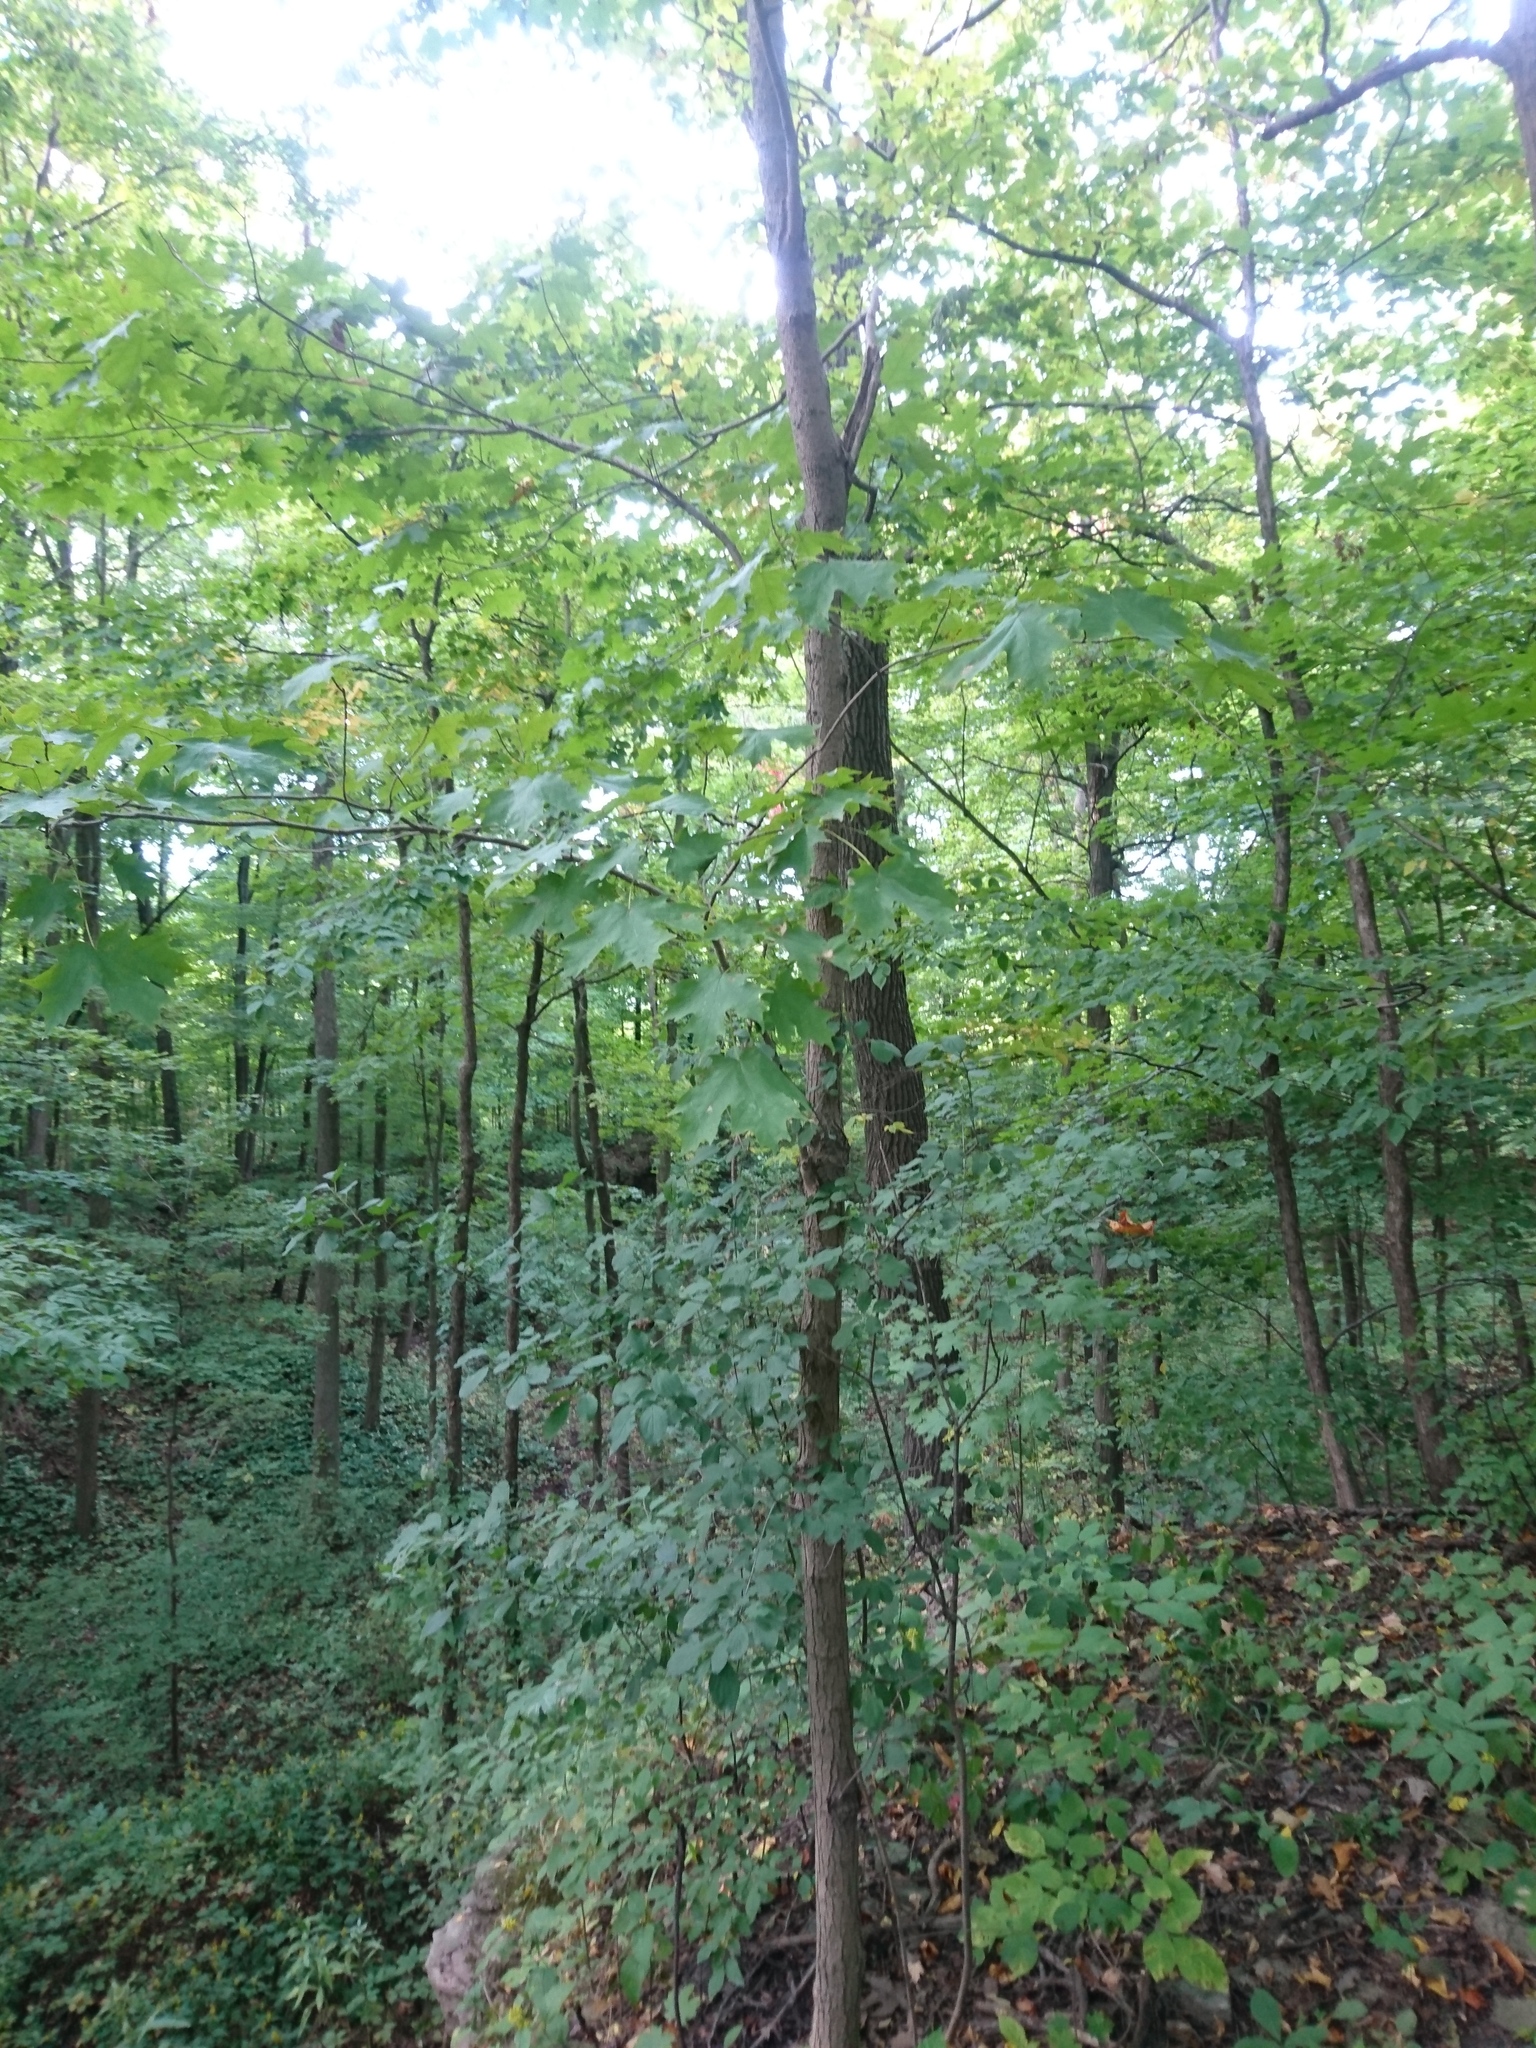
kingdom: Plantae
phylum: Tracheophyta
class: Magnoliopsida
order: Sapindales
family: Sapindaceae
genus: Acer
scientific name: Acer saccharum
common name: Sugar maple
